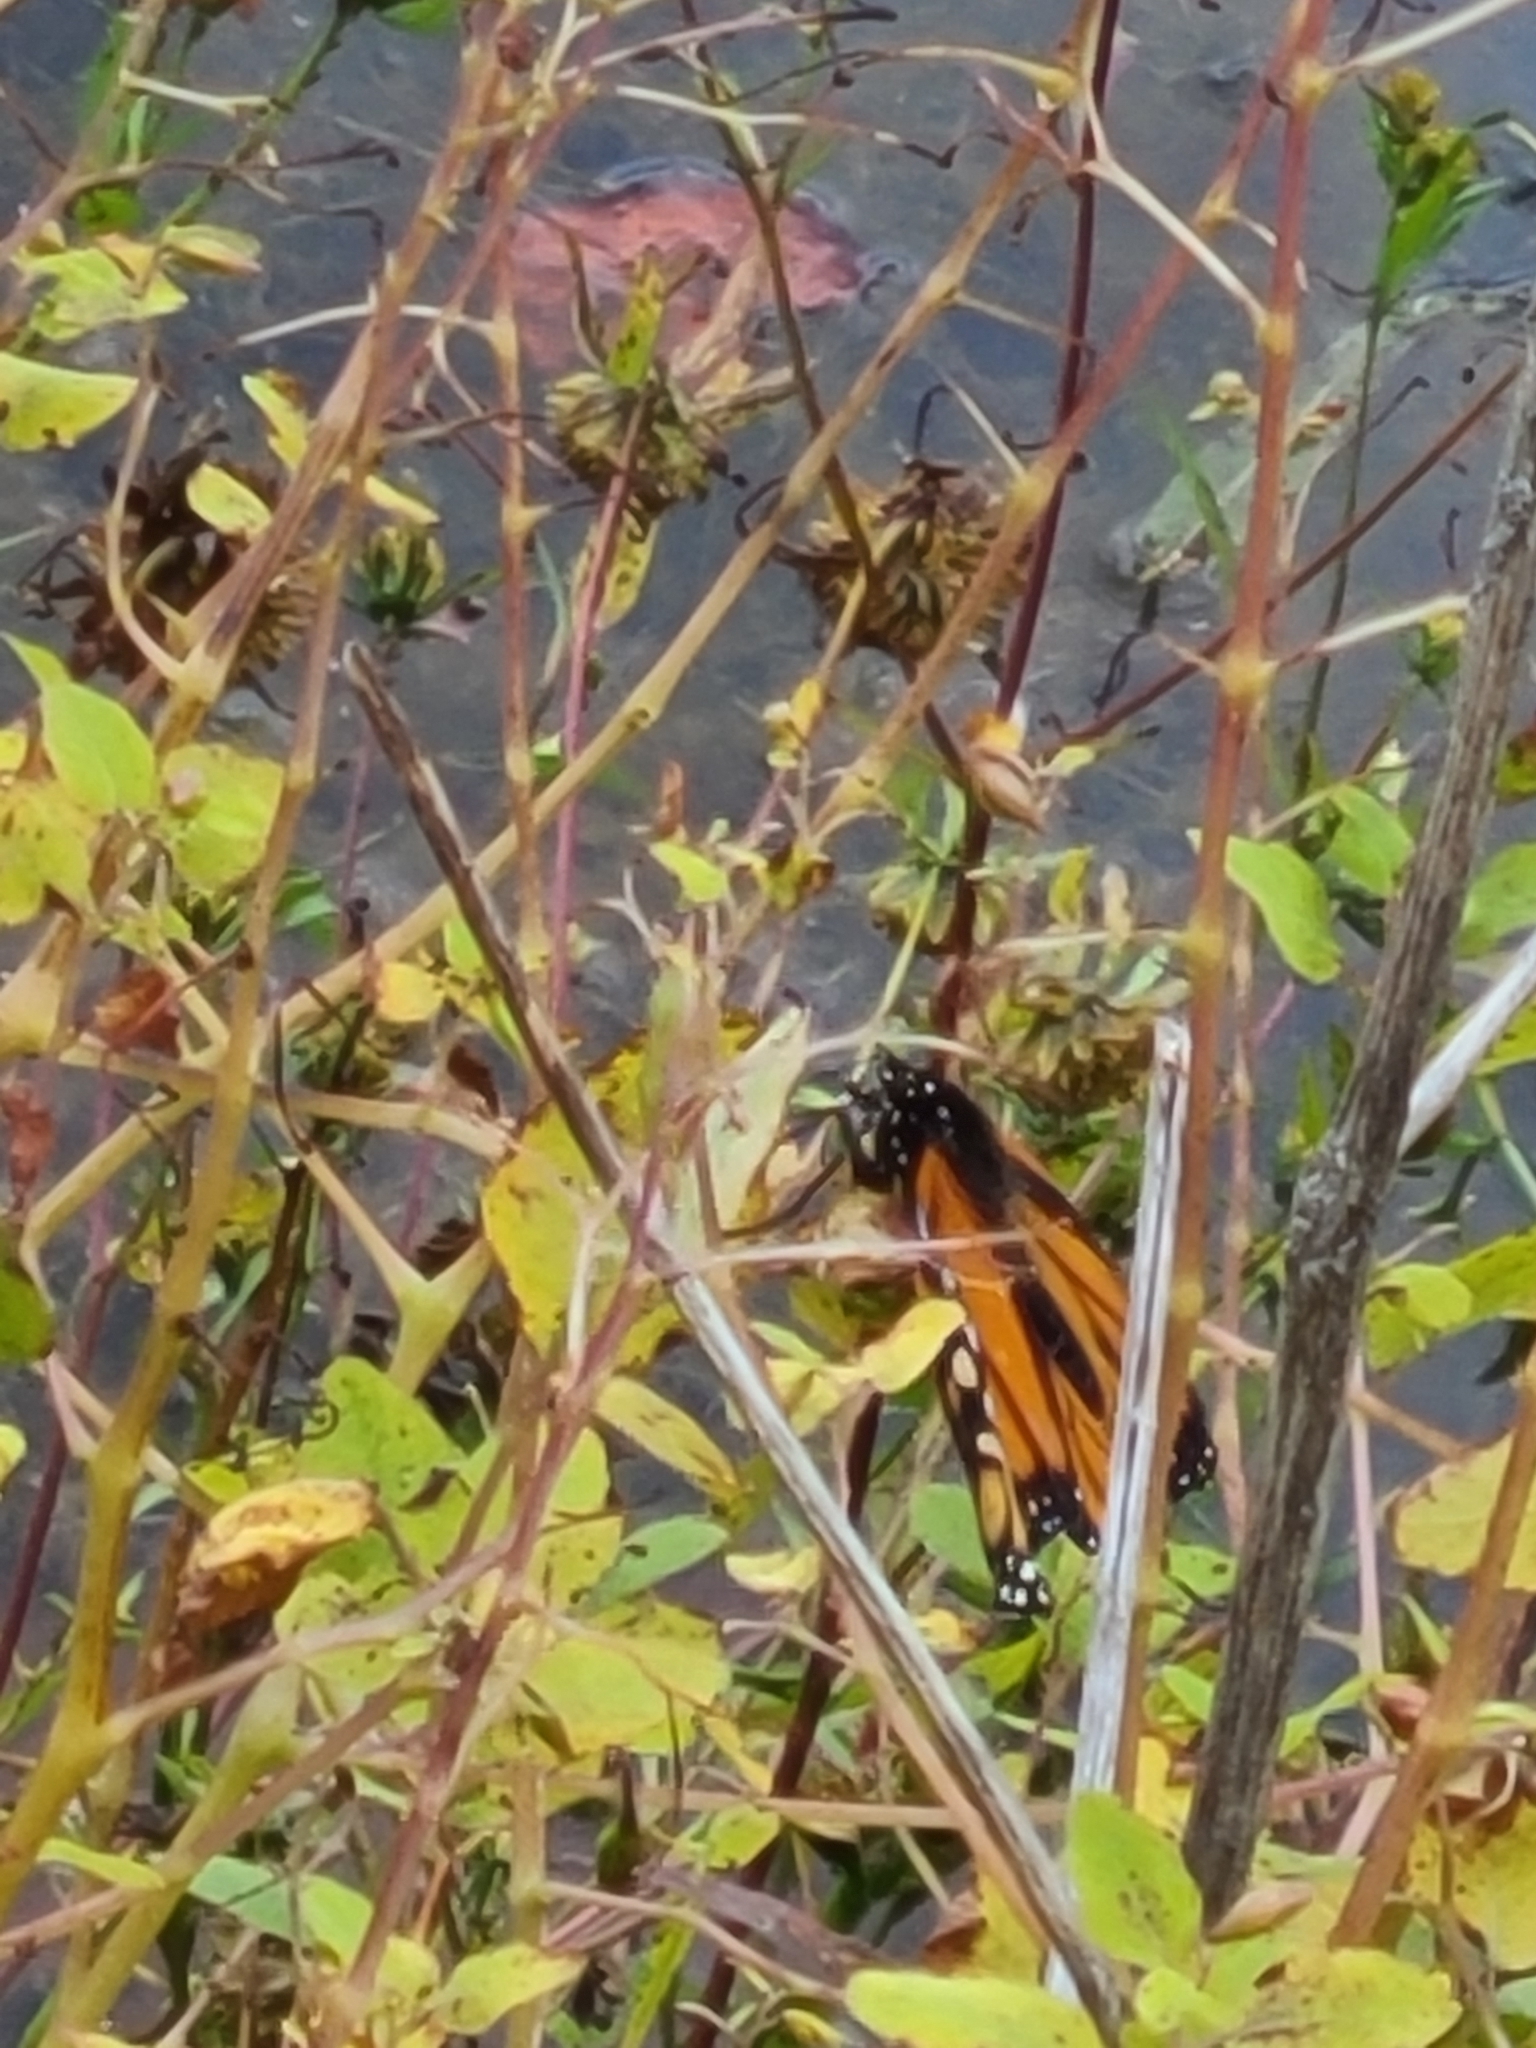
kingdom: Animalia
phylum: Arthropoda
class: Insecta
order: Lepidoptera
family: Nymphalidae
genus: Danaus
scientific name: Danaus plexippus
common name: Monarch
